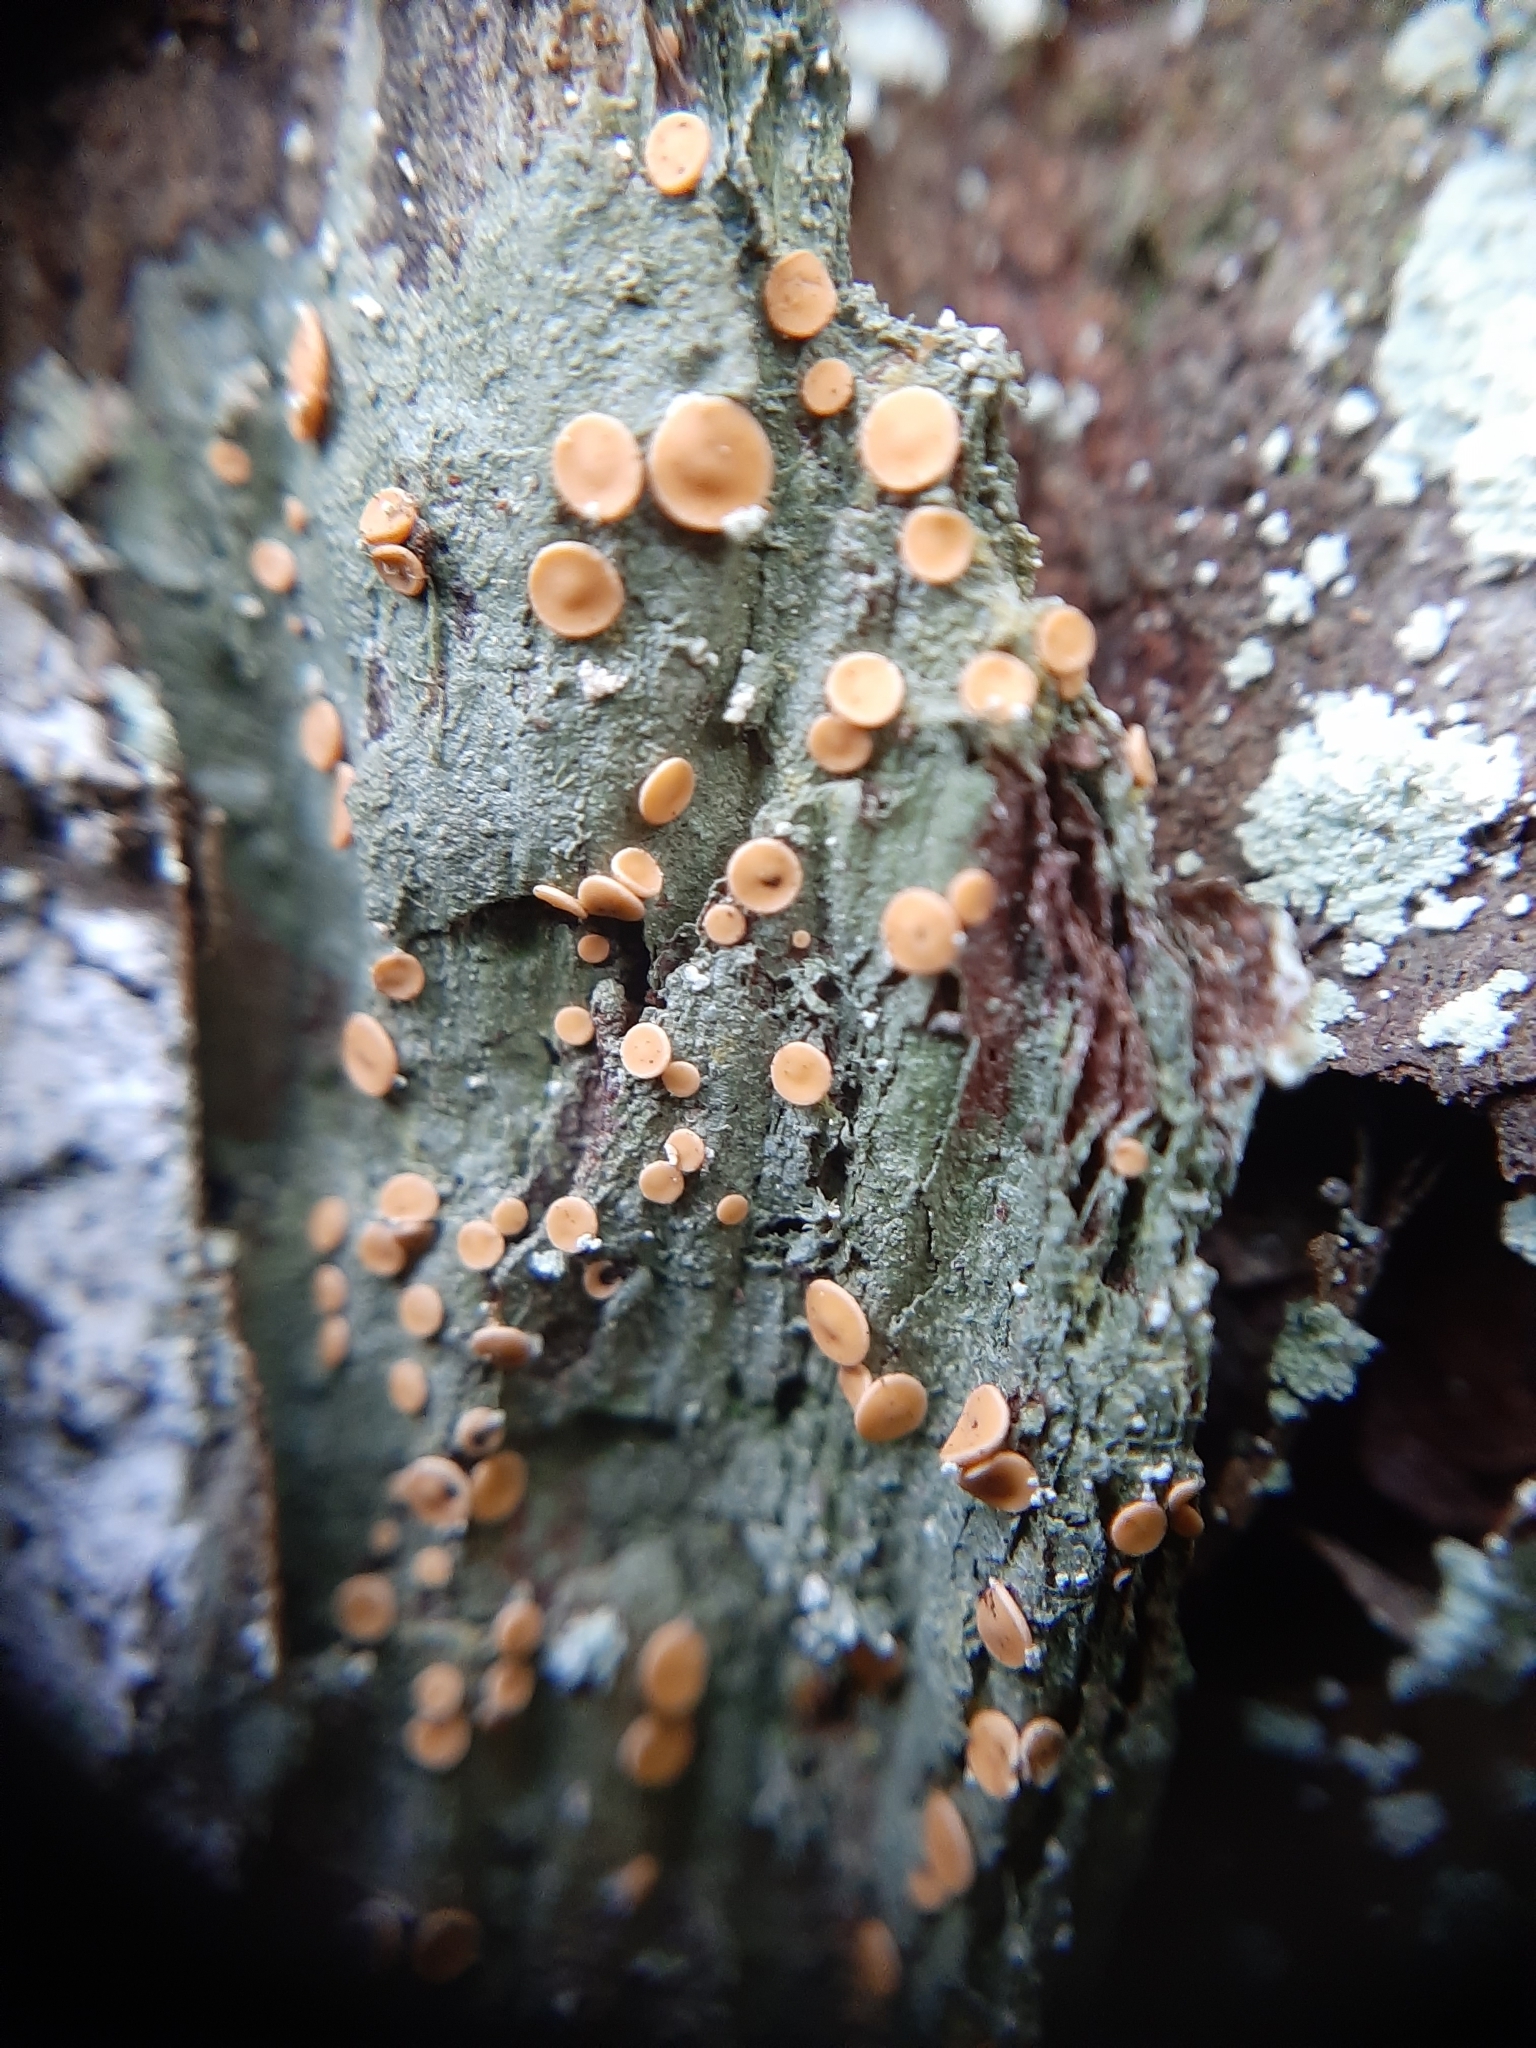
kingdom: Fungi
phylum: Ascomycota
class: Lecanoromycetes
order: Ostropales
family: Coenogoniaceae
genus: Coenogonium
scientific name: Coenogonium luteum
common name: Orange dimple lichen
